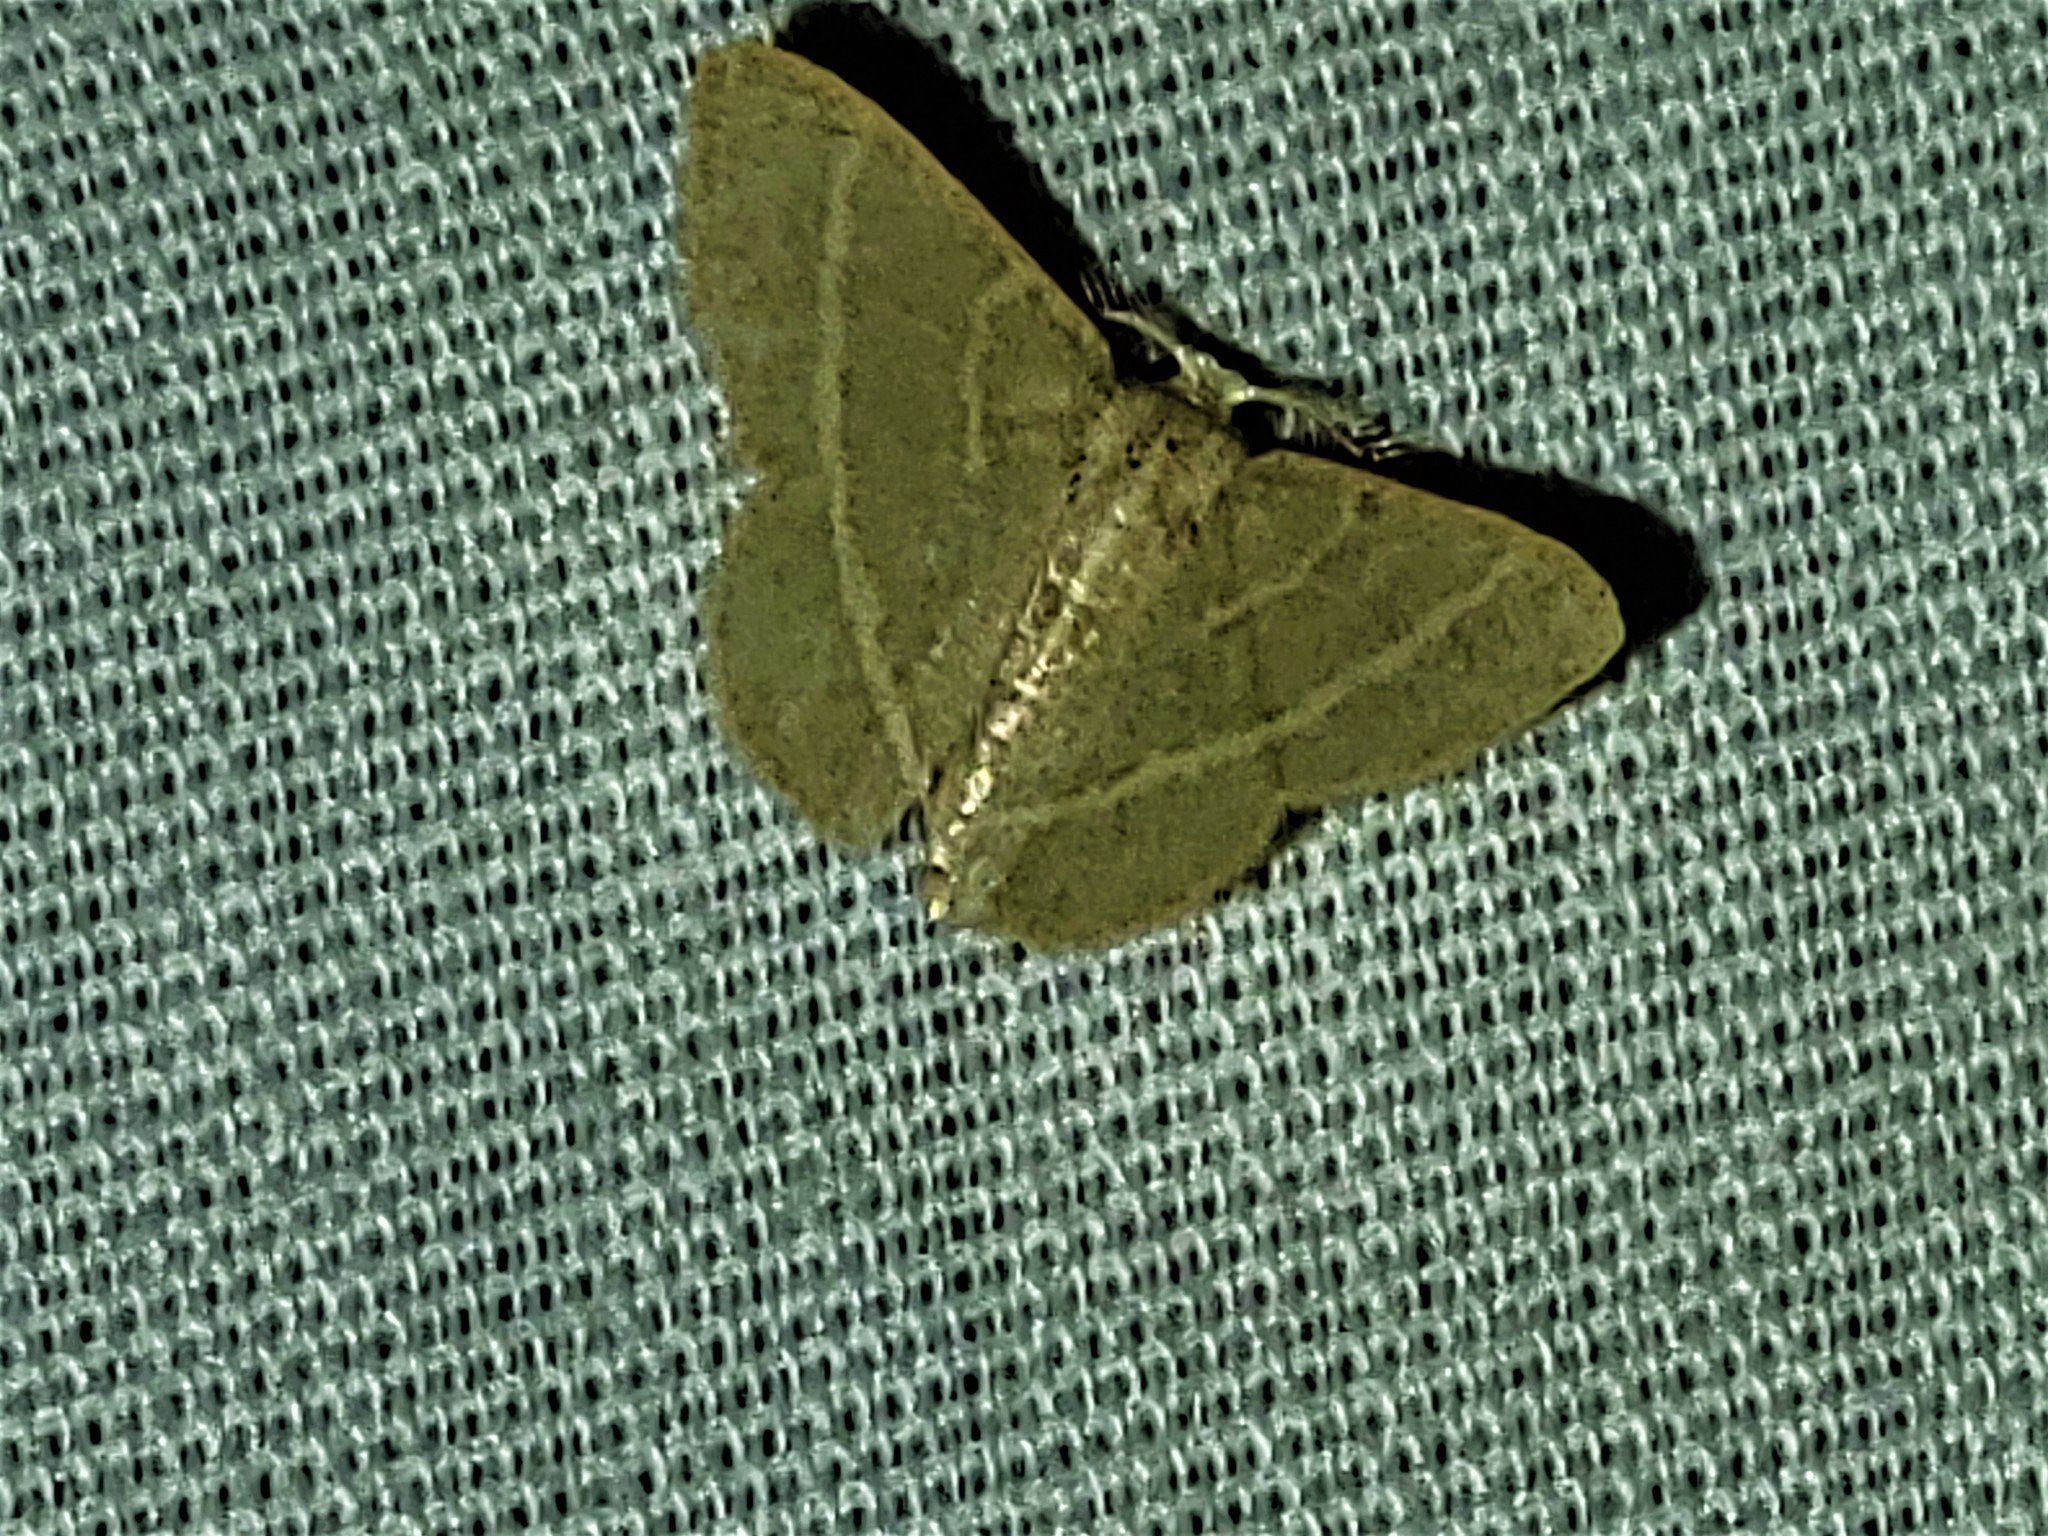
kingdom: Animalia
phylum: Arthropoda
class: Insecta
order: Lepidoptera
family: Geometridae
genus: Chlorochlamys
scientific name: Chlorochlamys chloroleucaria
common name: Blackberry looper
